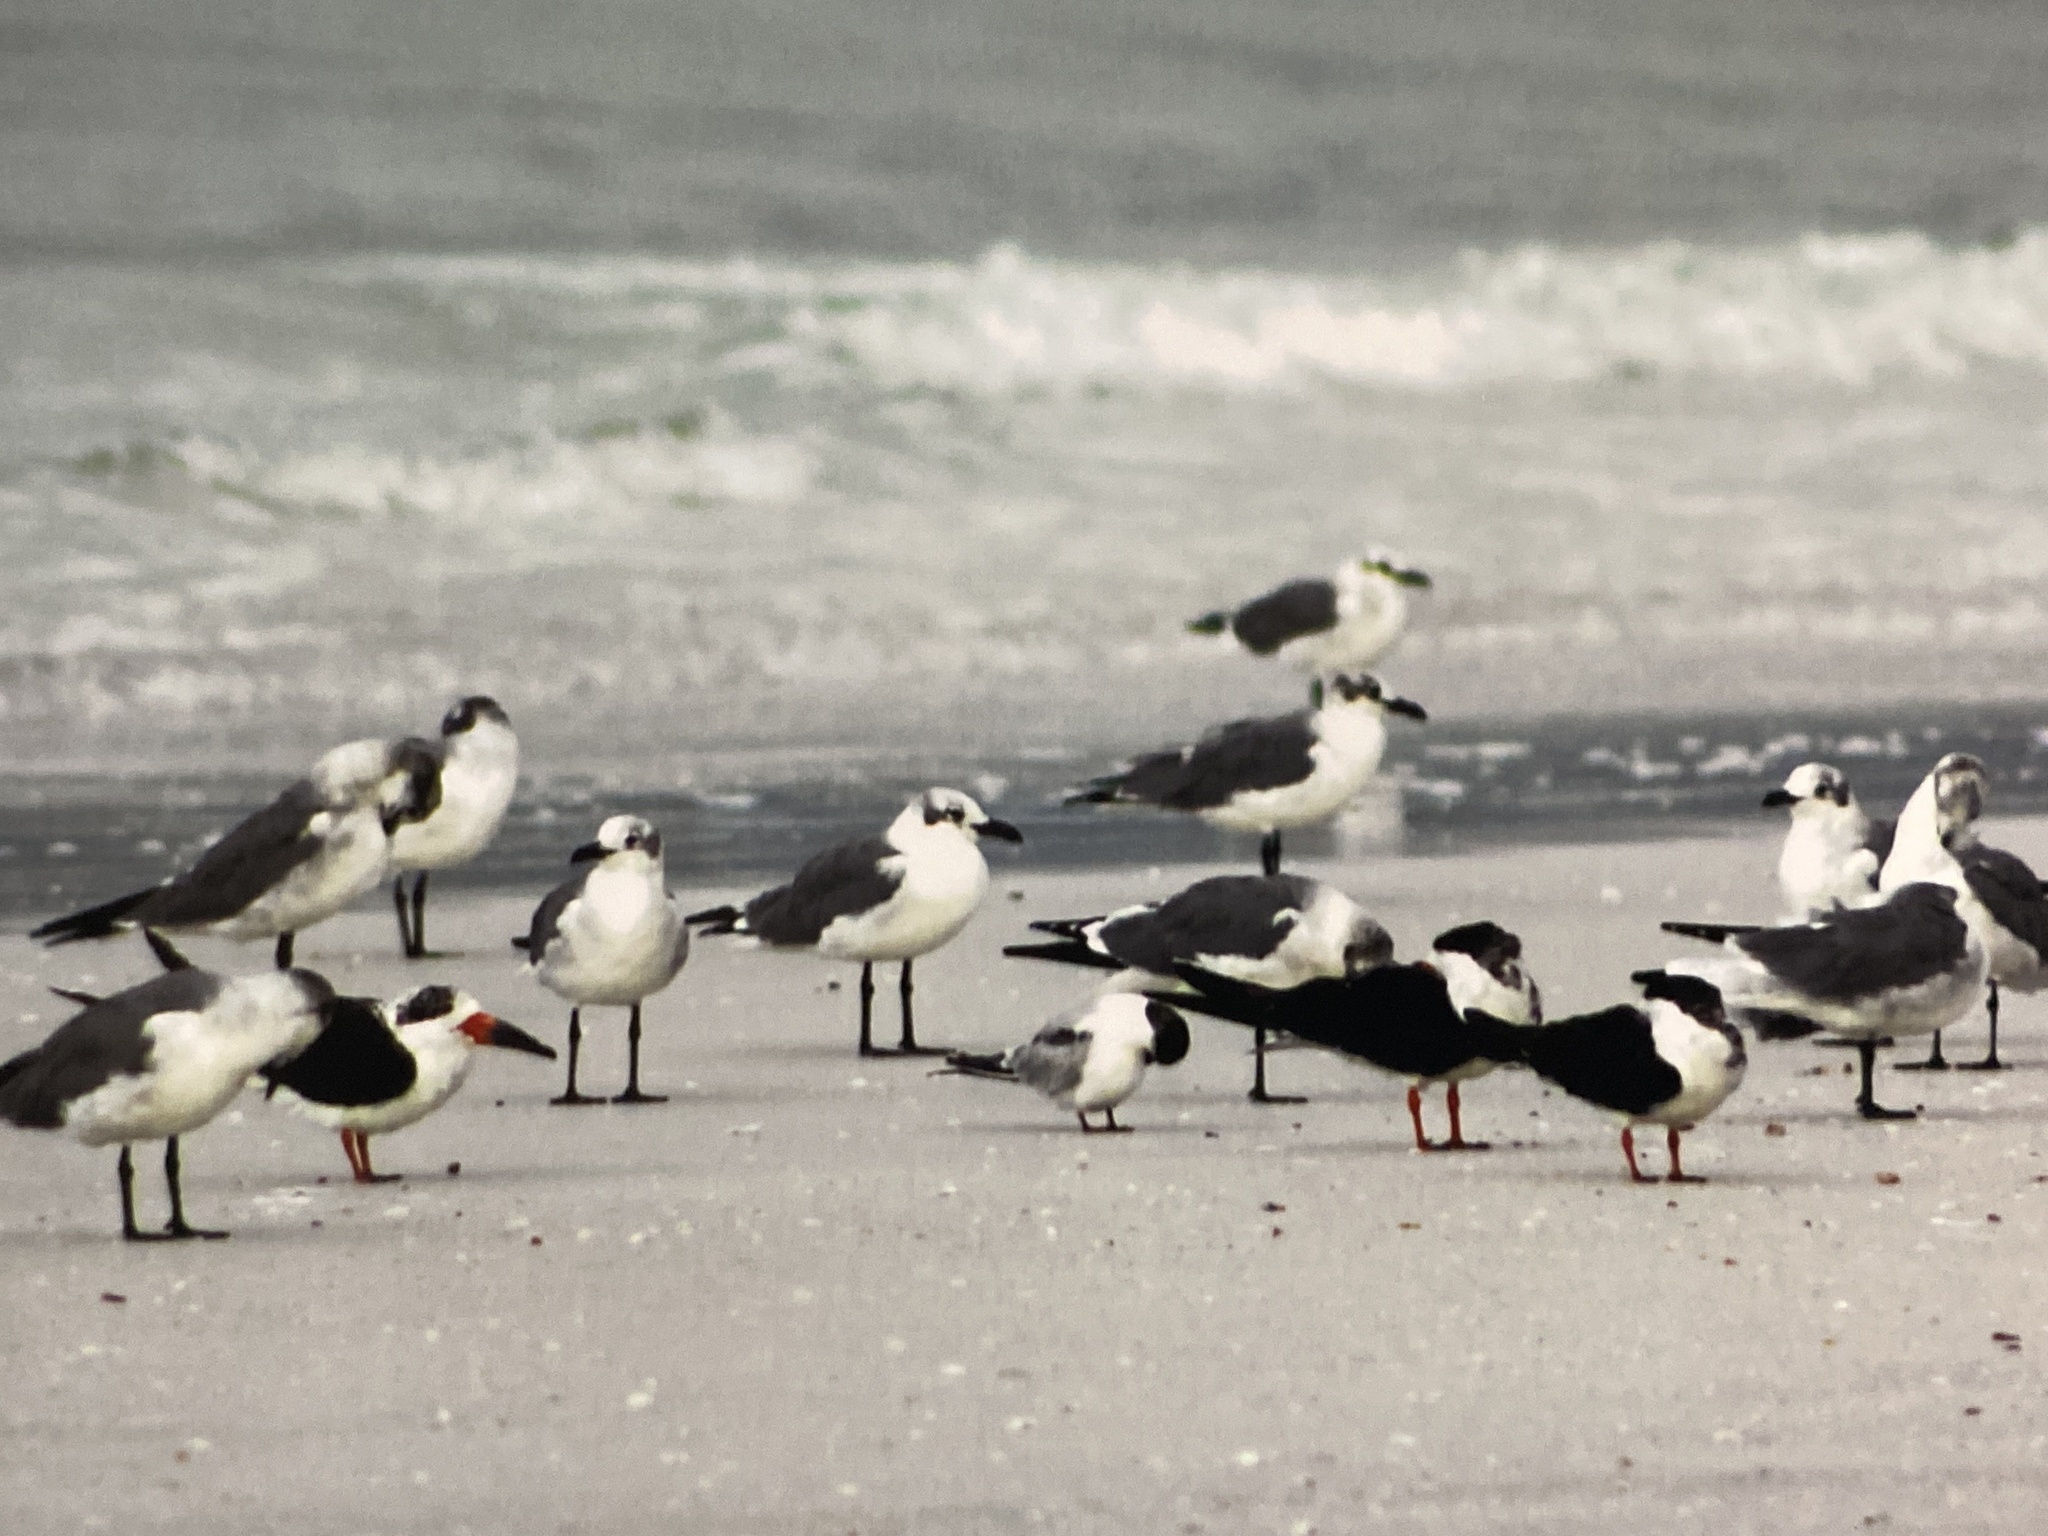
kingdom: Animalia
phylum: Chordata
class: Aves
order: Charadriiformes
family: Laridae
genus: Sterna
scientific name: Sterna hirundo
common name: Common tern
